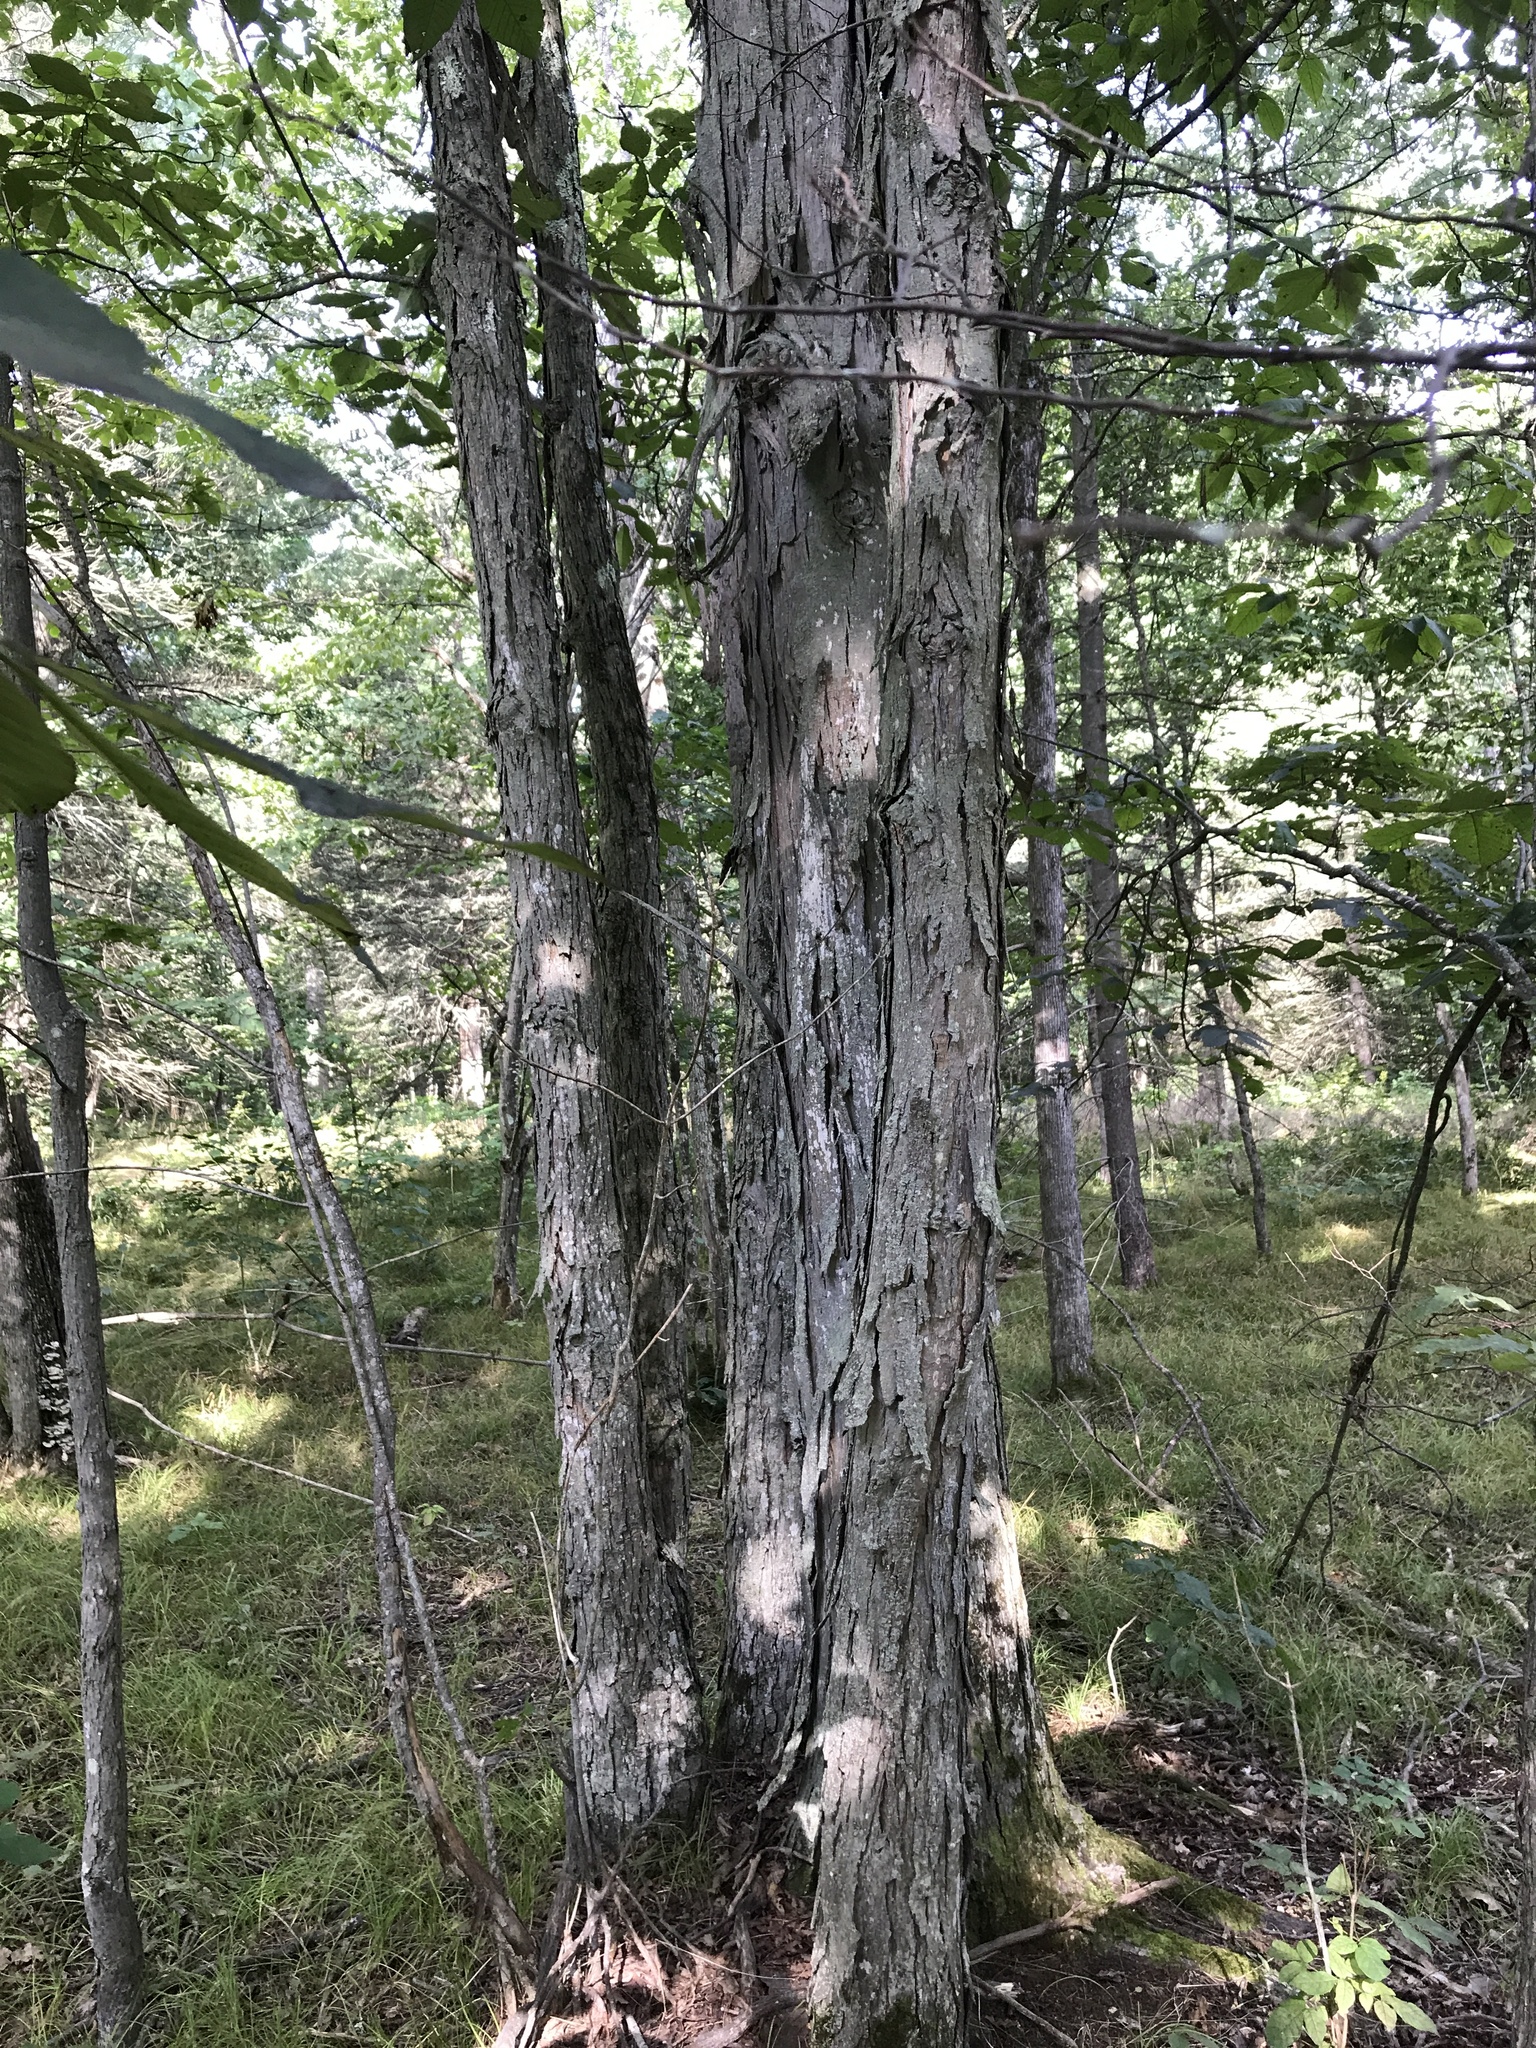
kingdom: Plantae
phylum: Tracheophyta
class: Magnoliopsida
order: Fagales
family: Juglandaceae
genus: Carya
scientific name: Carya ovata
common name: Shagbark hickory
